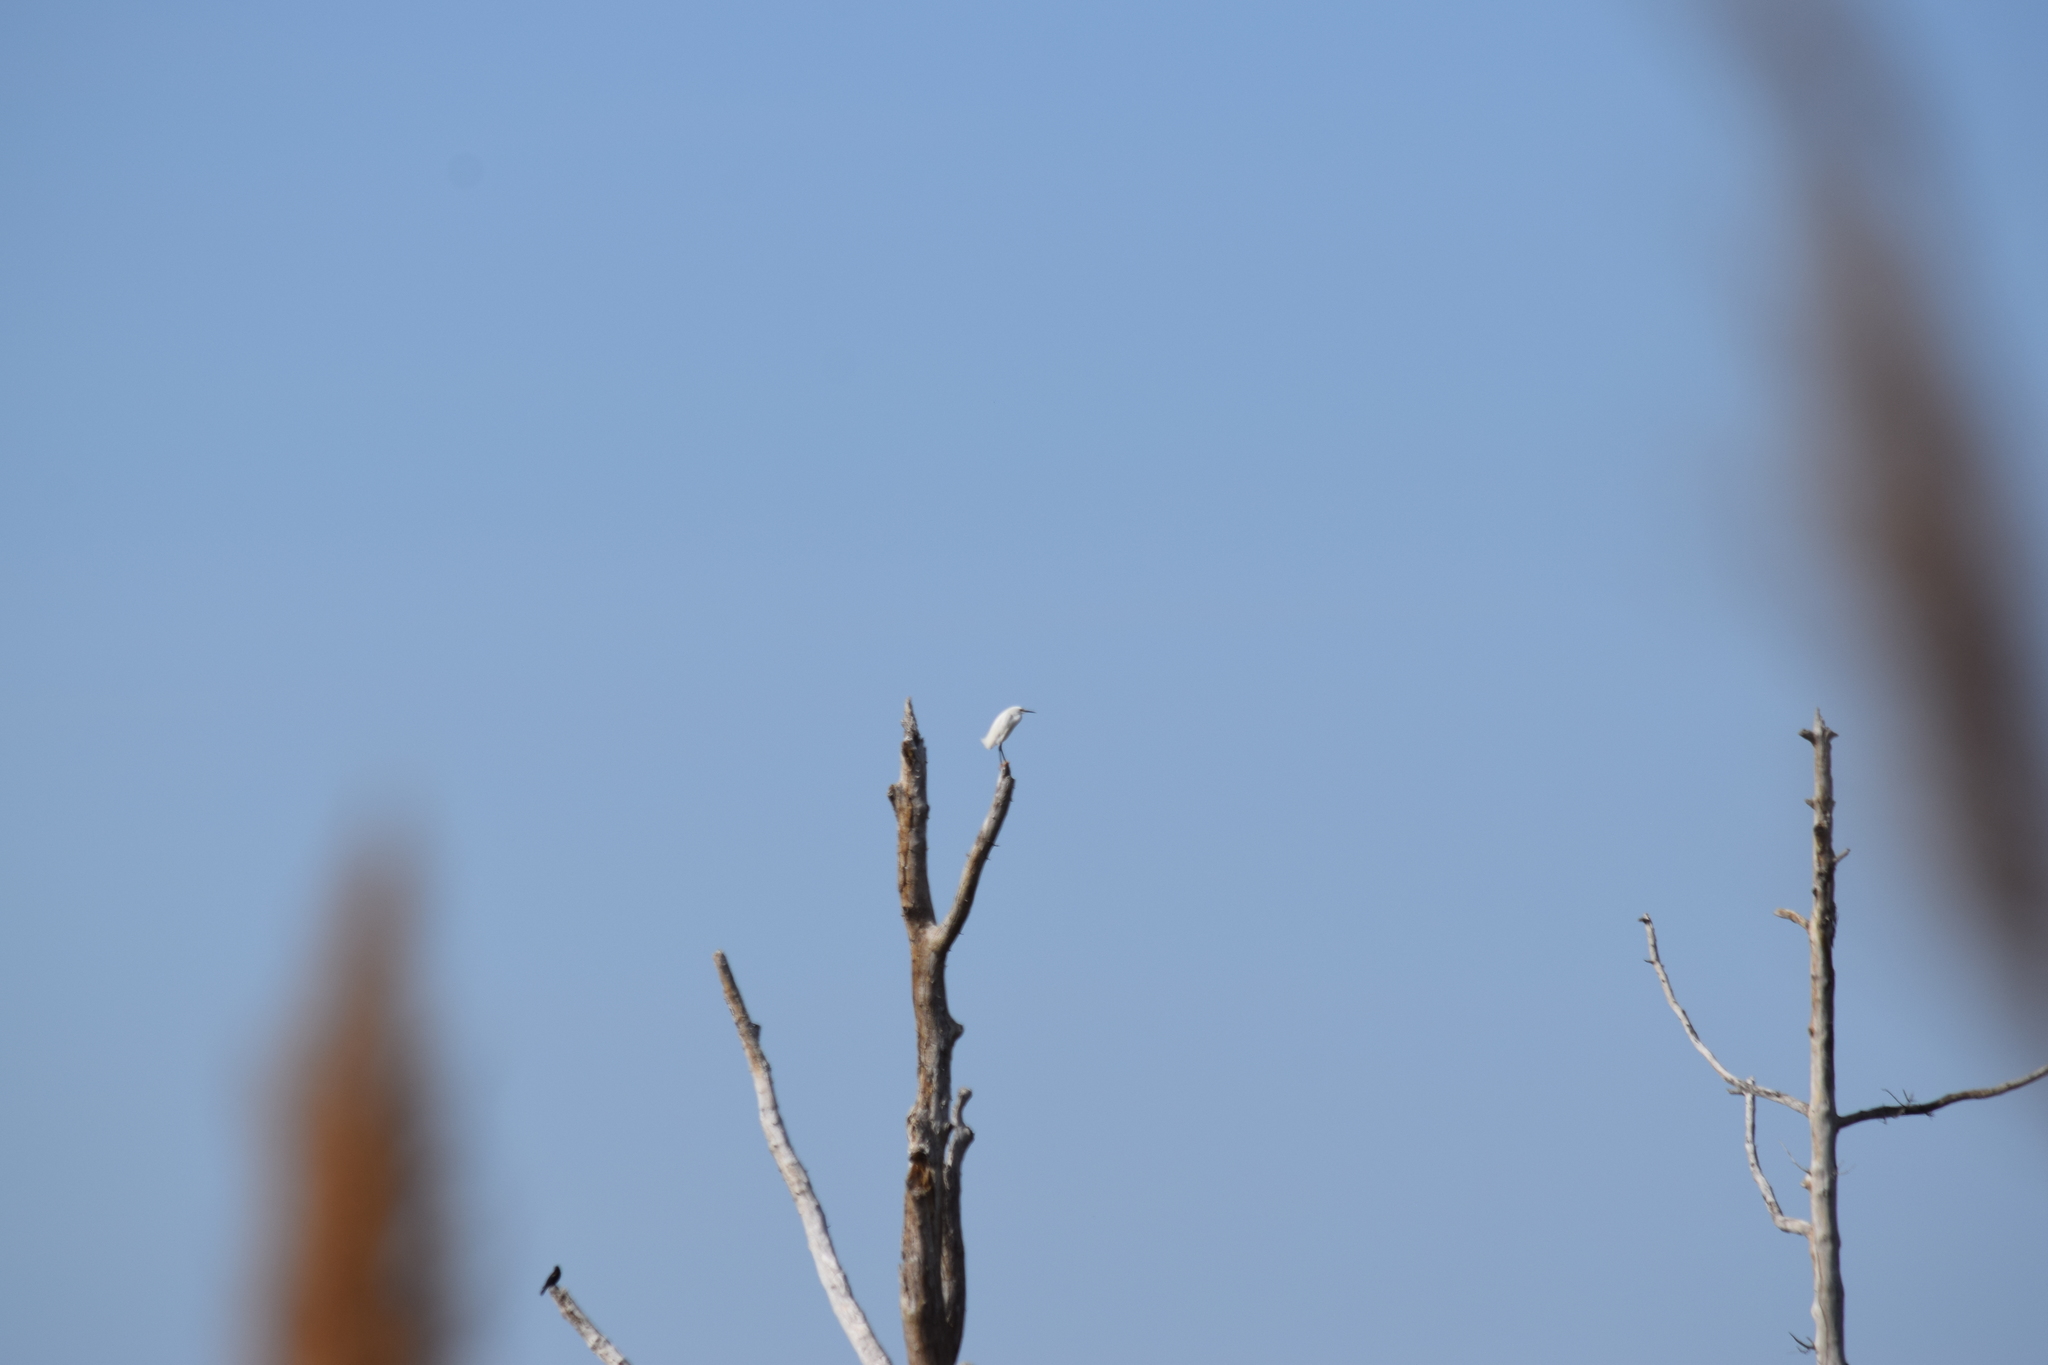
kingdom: Animalia
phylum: Chordata
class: Aves
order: Pelecaniformes
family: Ardeidae
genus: Egretta
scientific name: Egretta thula
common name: Snowy egret
